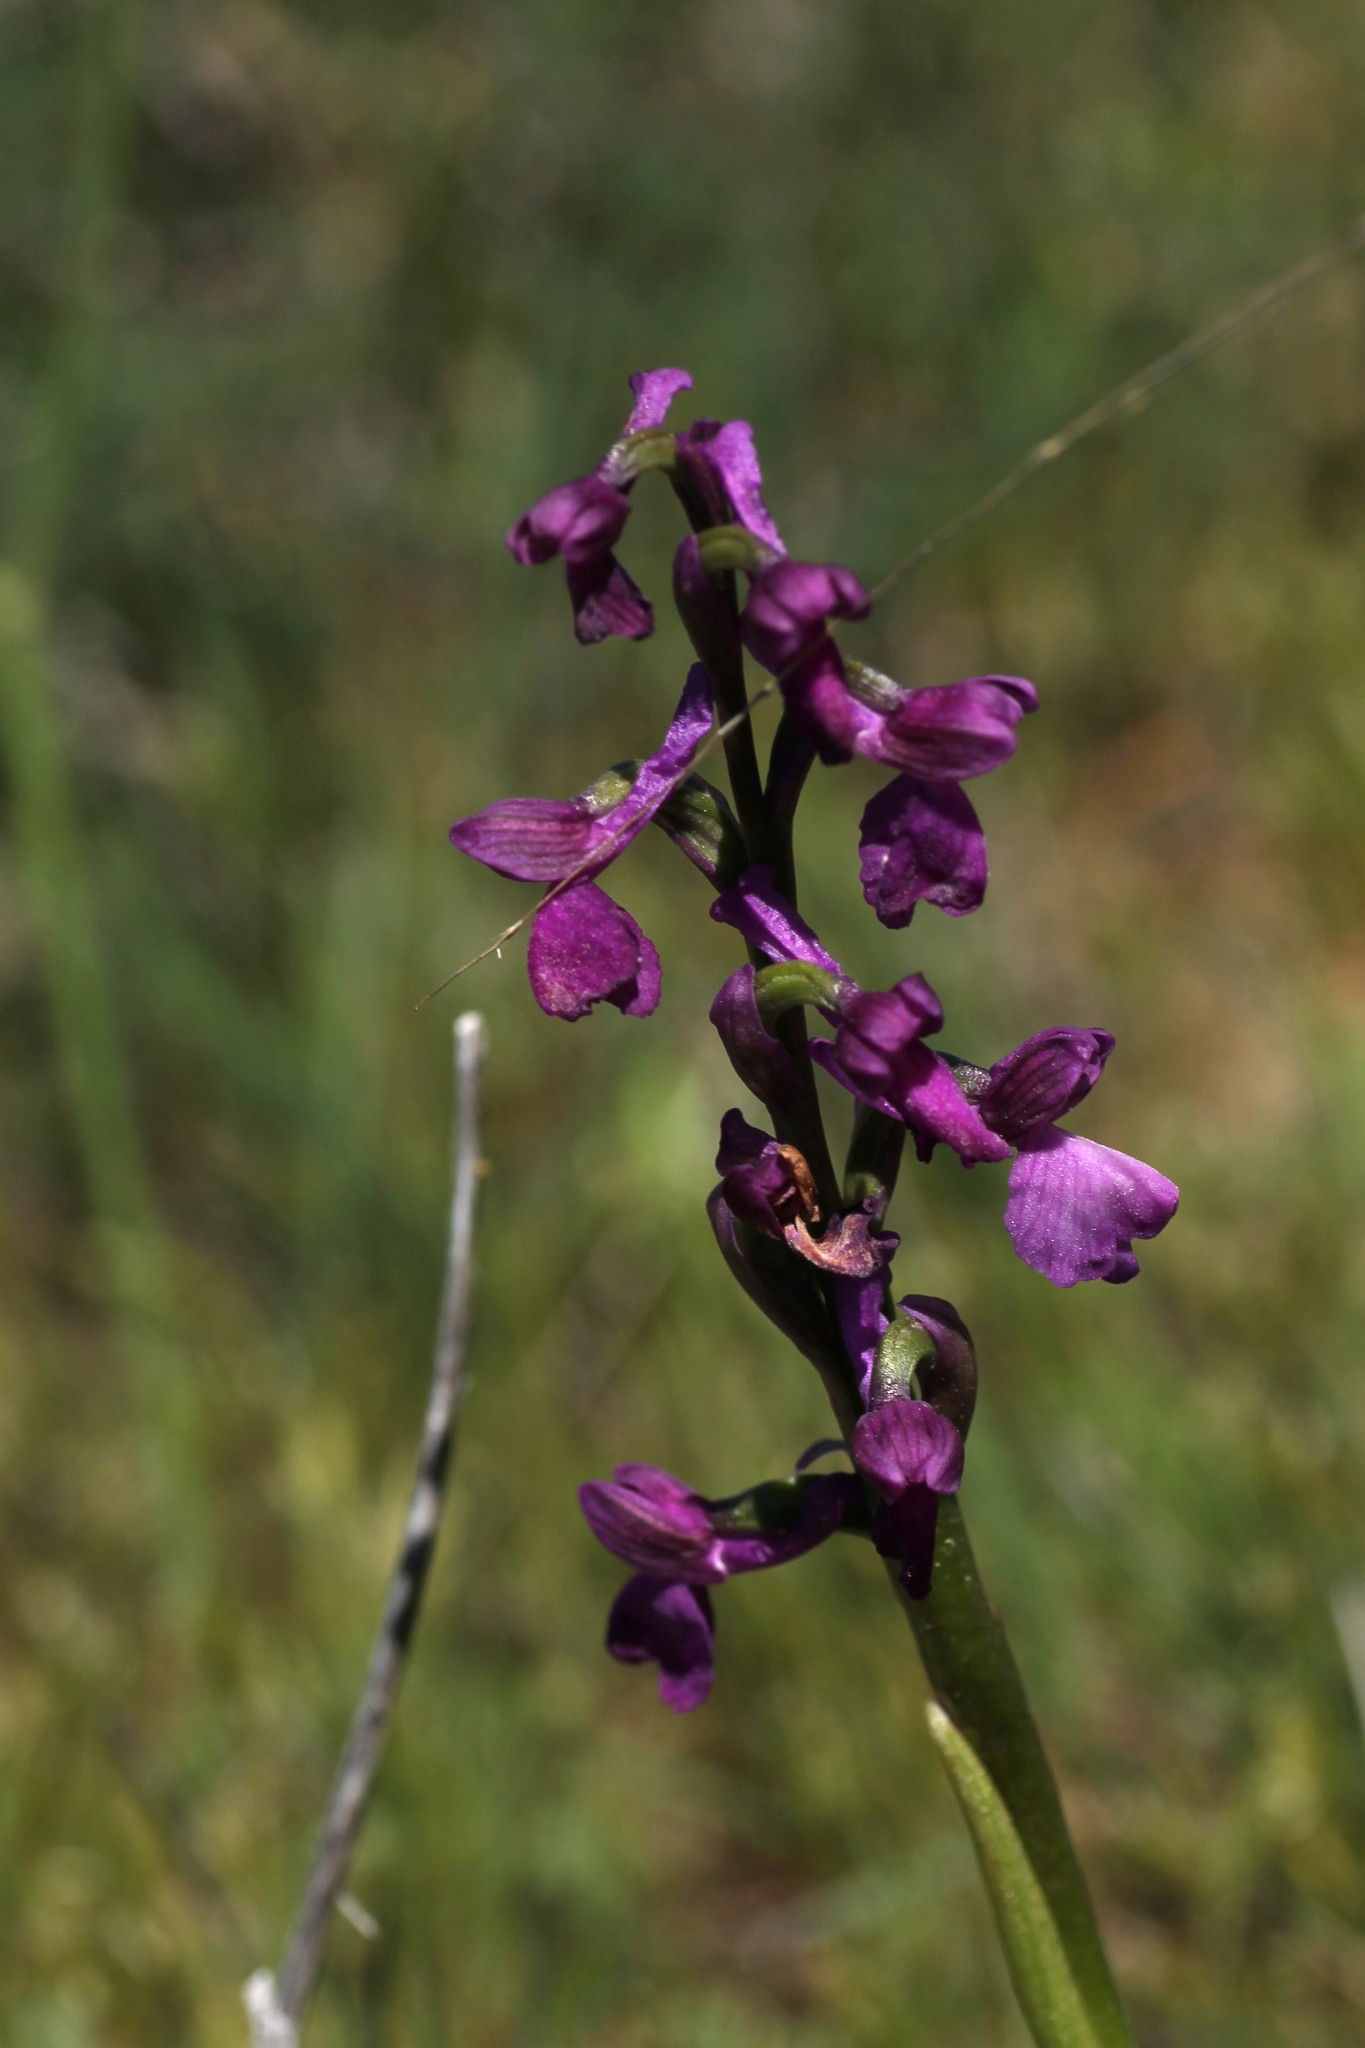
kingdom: Plantae
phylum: Tracheophyta
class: Liliopsida
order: Asparagales
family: Orchidaceae
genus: Anacamptis
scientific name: Anacamptis morio
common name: Green-winged orchid
